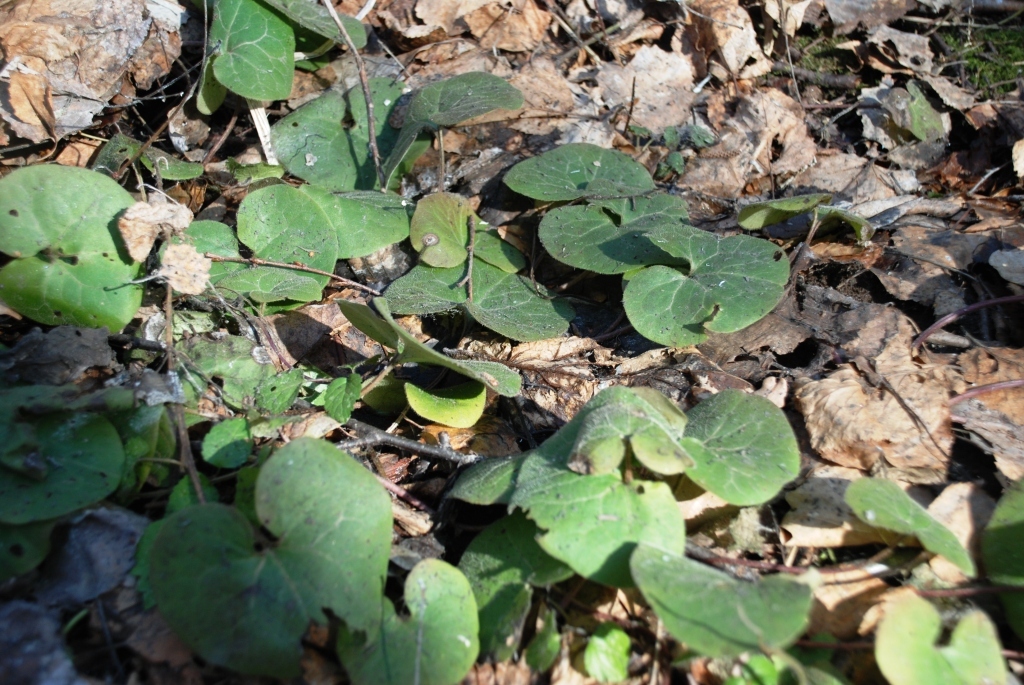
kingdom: Plantae
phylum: Tracheophyta
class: Magnoliopsida
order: Piperales
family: Aristolochiaceae
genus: Asarum
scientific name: Asarum europaeum
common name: Asarabacca
